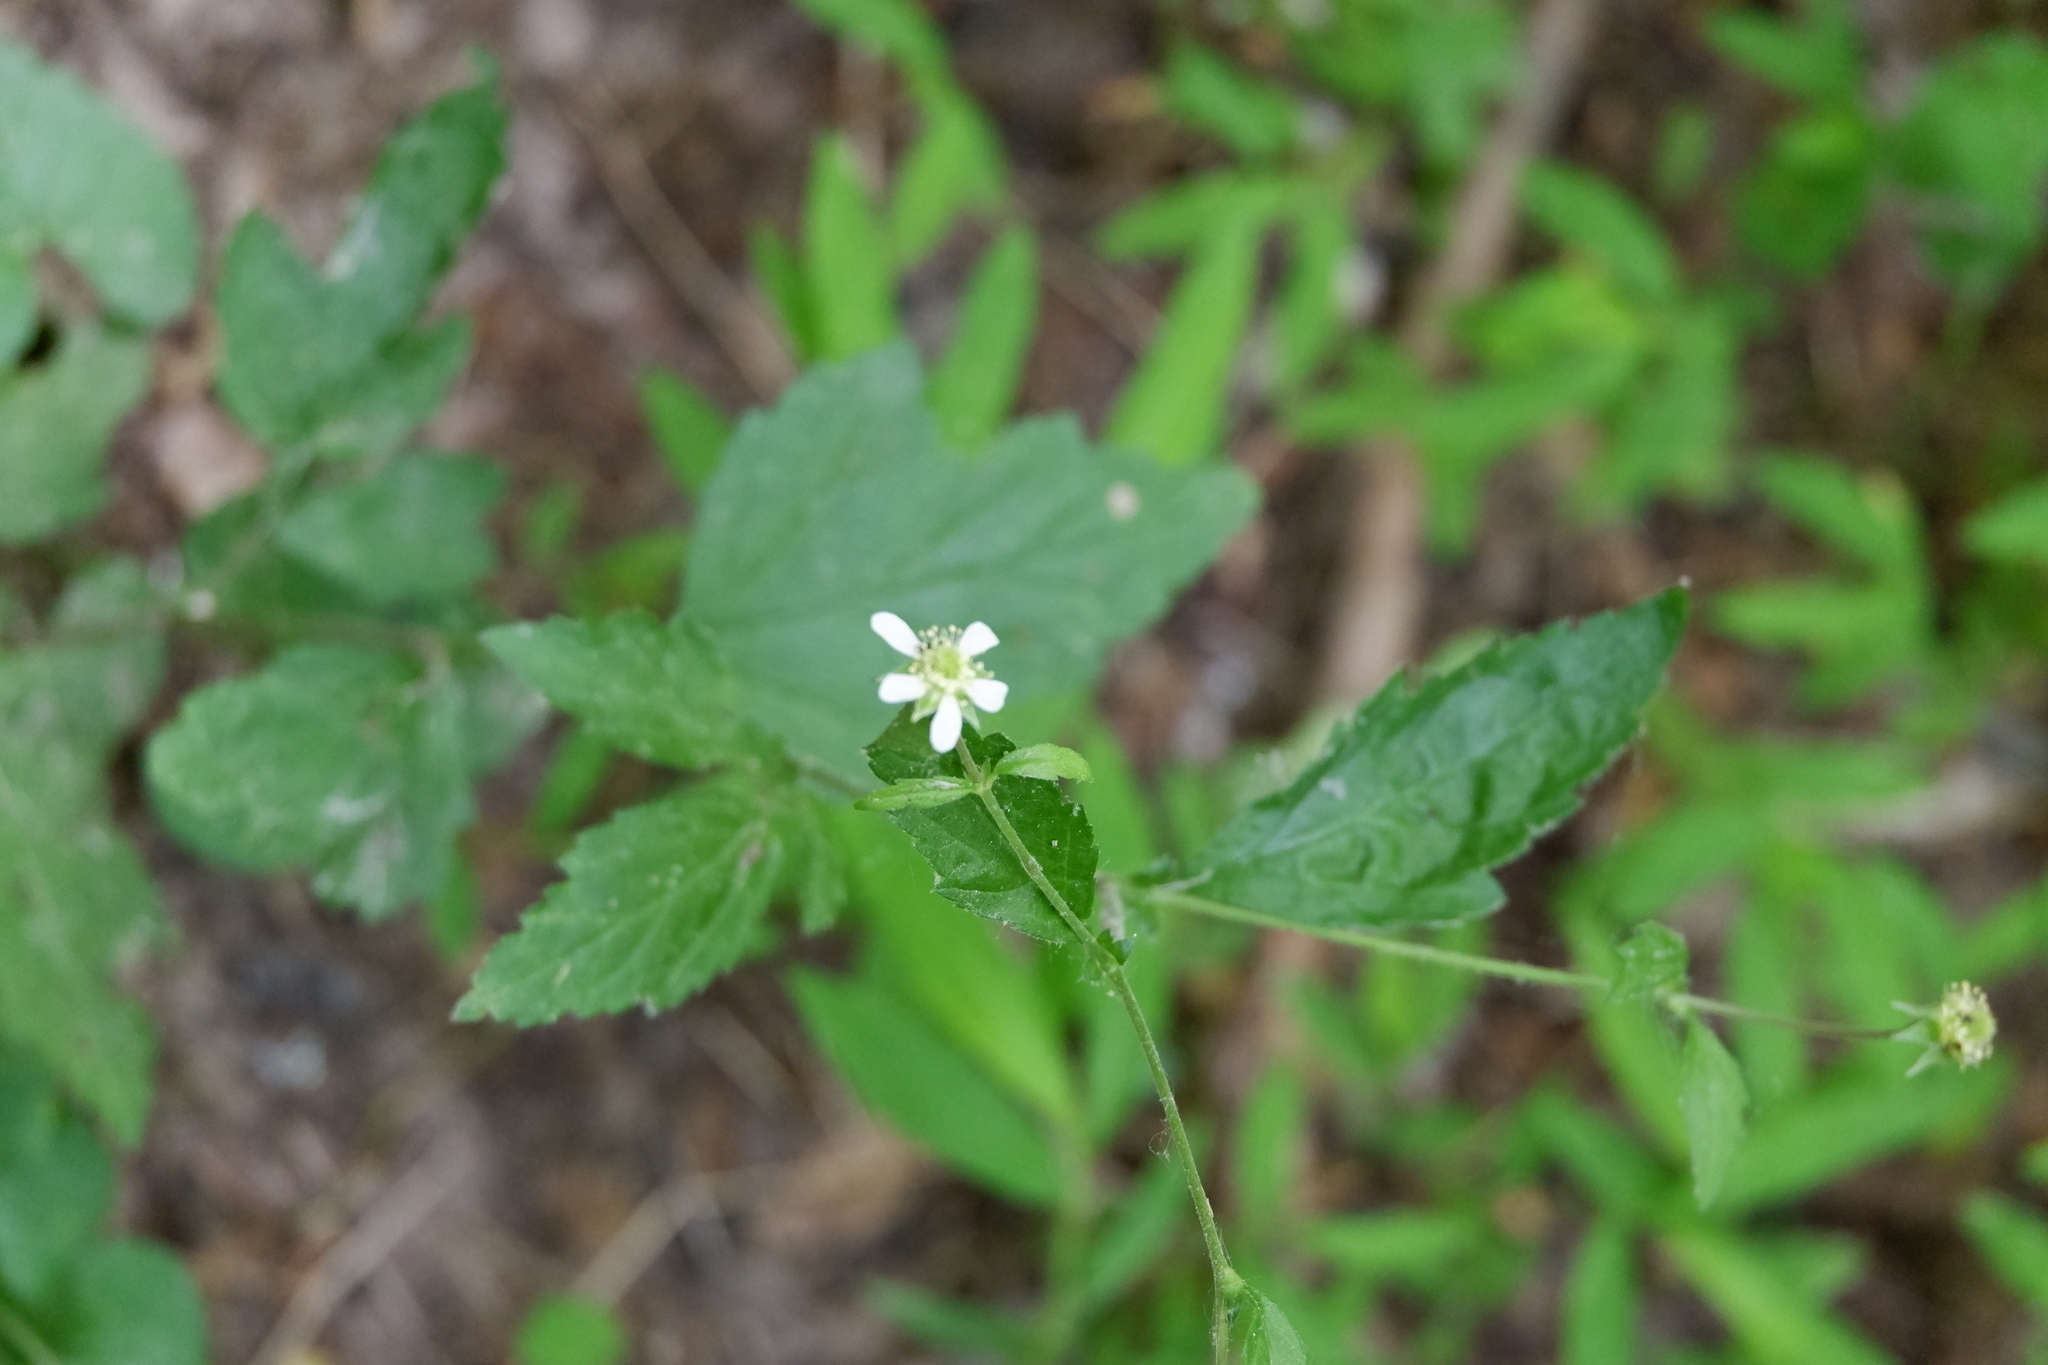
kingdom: Plantae
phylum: Tracheophyta
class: Magnoliopsida
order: Rosales
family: Rosaceae
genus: Geum
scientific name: Geum canadense
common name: White avens
